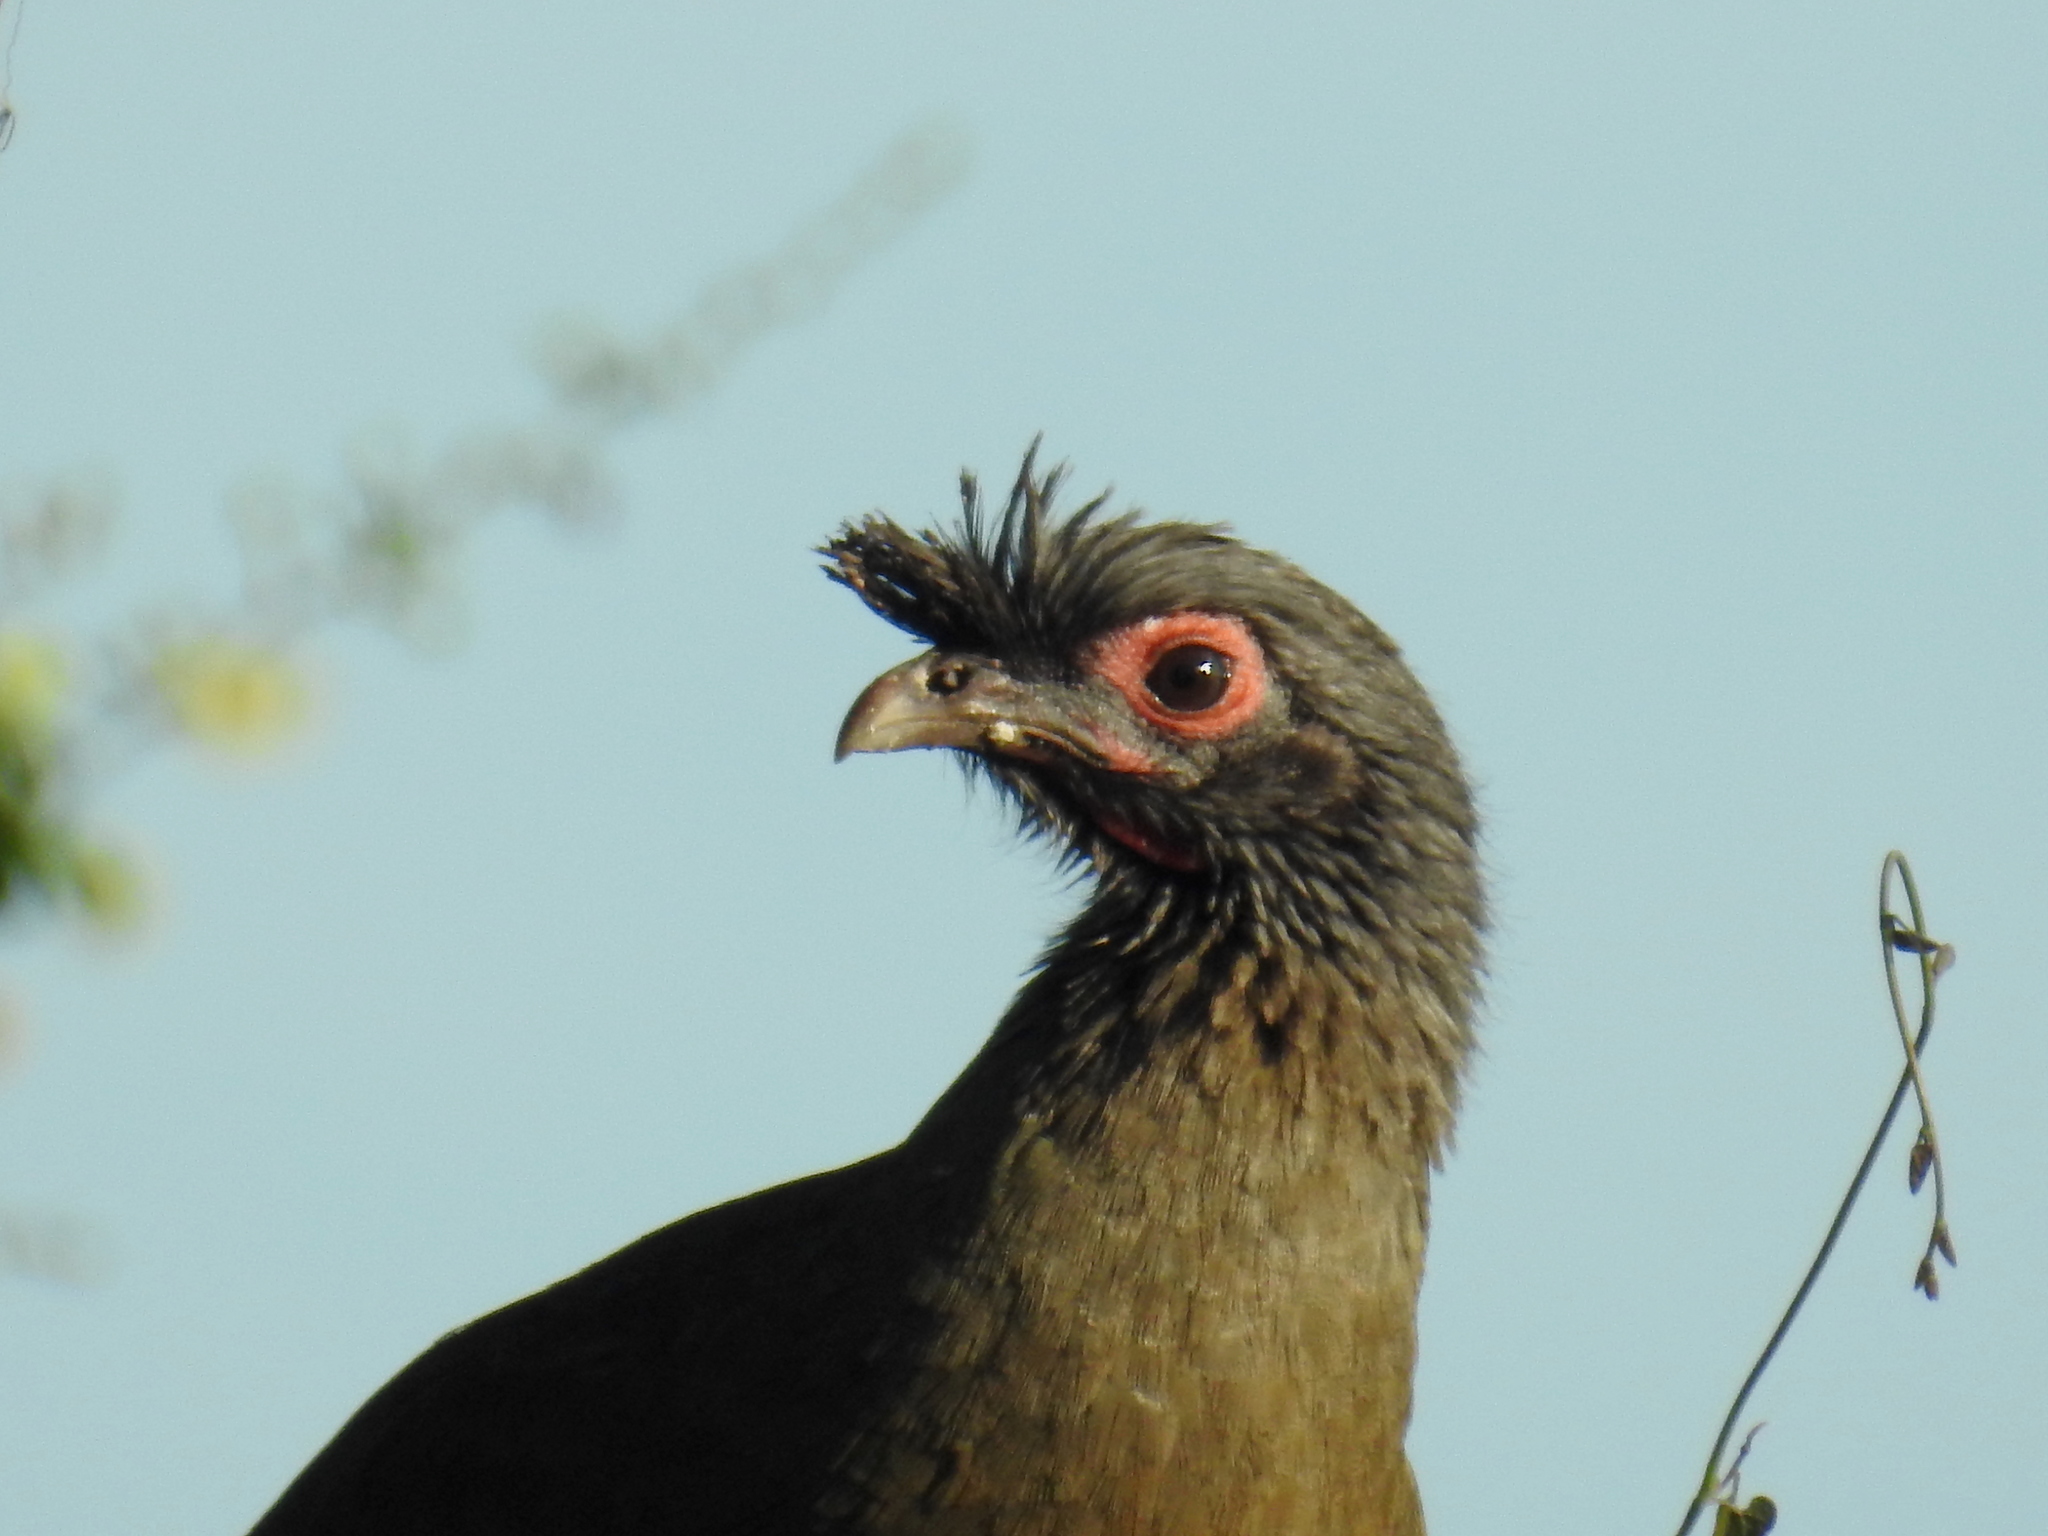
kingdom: Animalia
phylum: Chordata
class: Aves
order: Galliformes
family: Cracidae
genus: Ortalis
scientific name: Ortalis wagleri
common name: Rufous-bellied chachalaca
